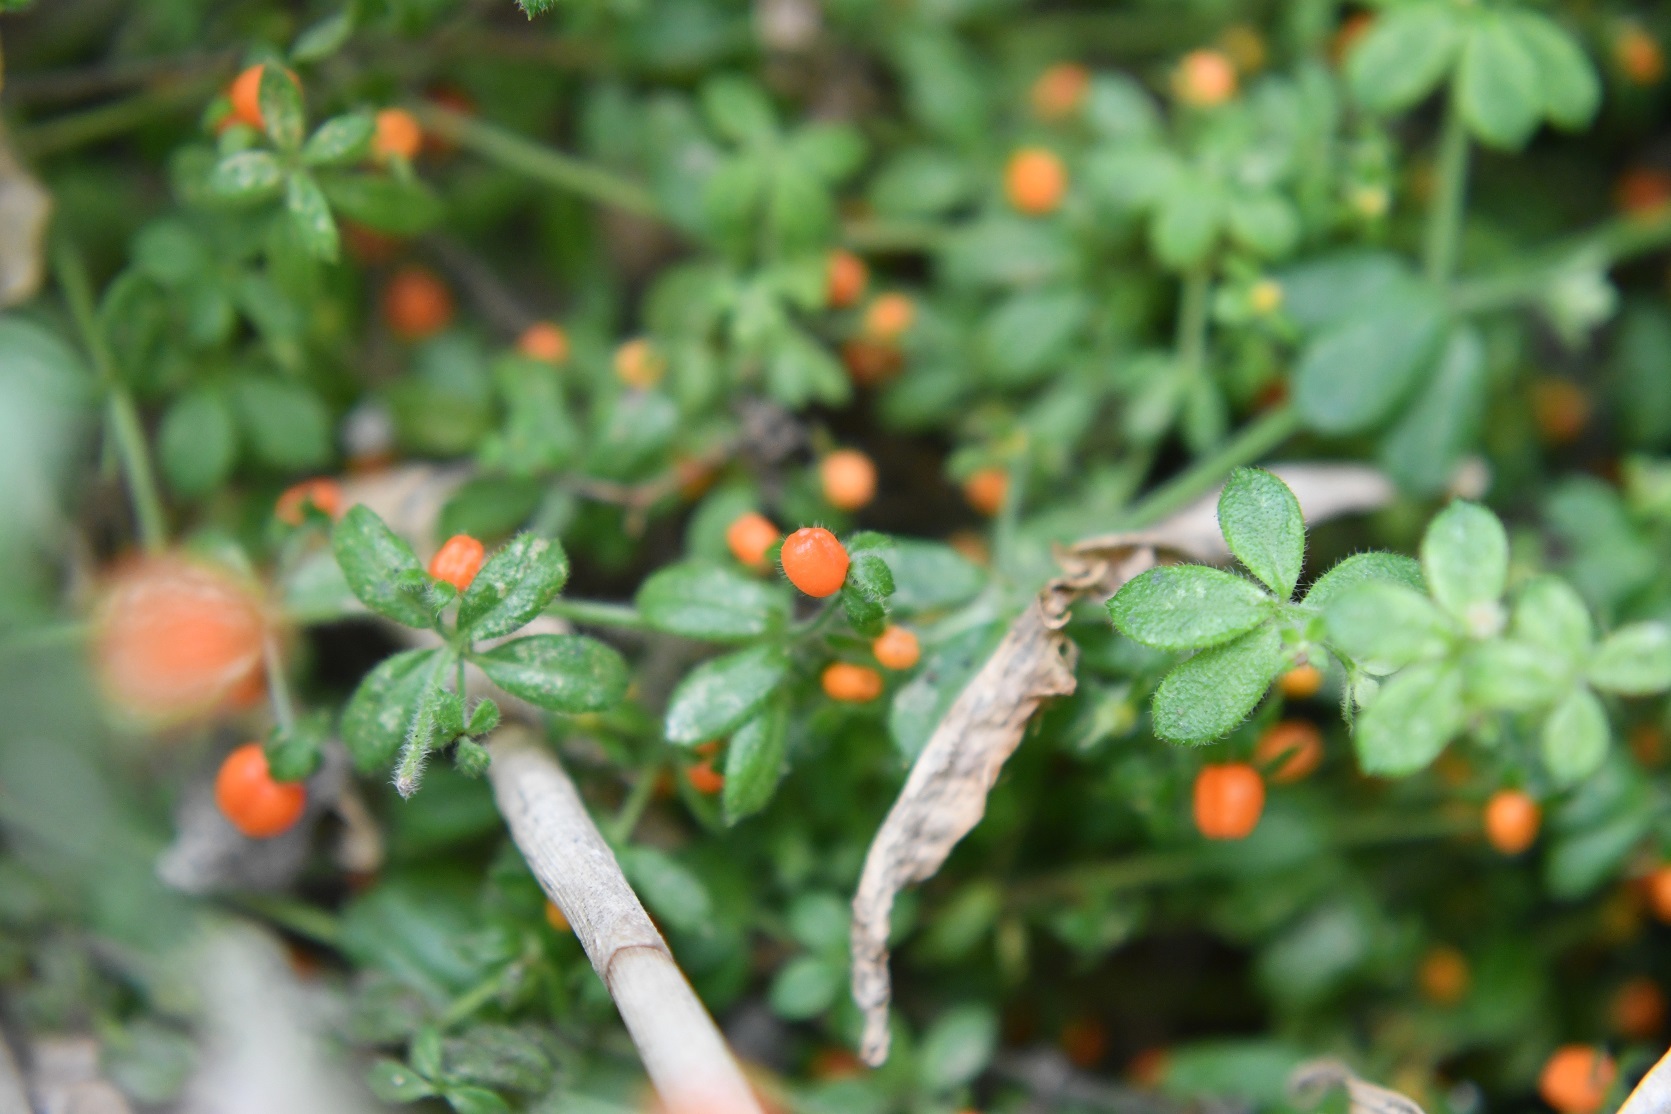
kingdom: Plantae
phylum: Tracheophyta
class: Magnoliopsida
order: Gentianales
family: Rubiaceae
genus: Galium
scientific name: Galium hypocarpium
